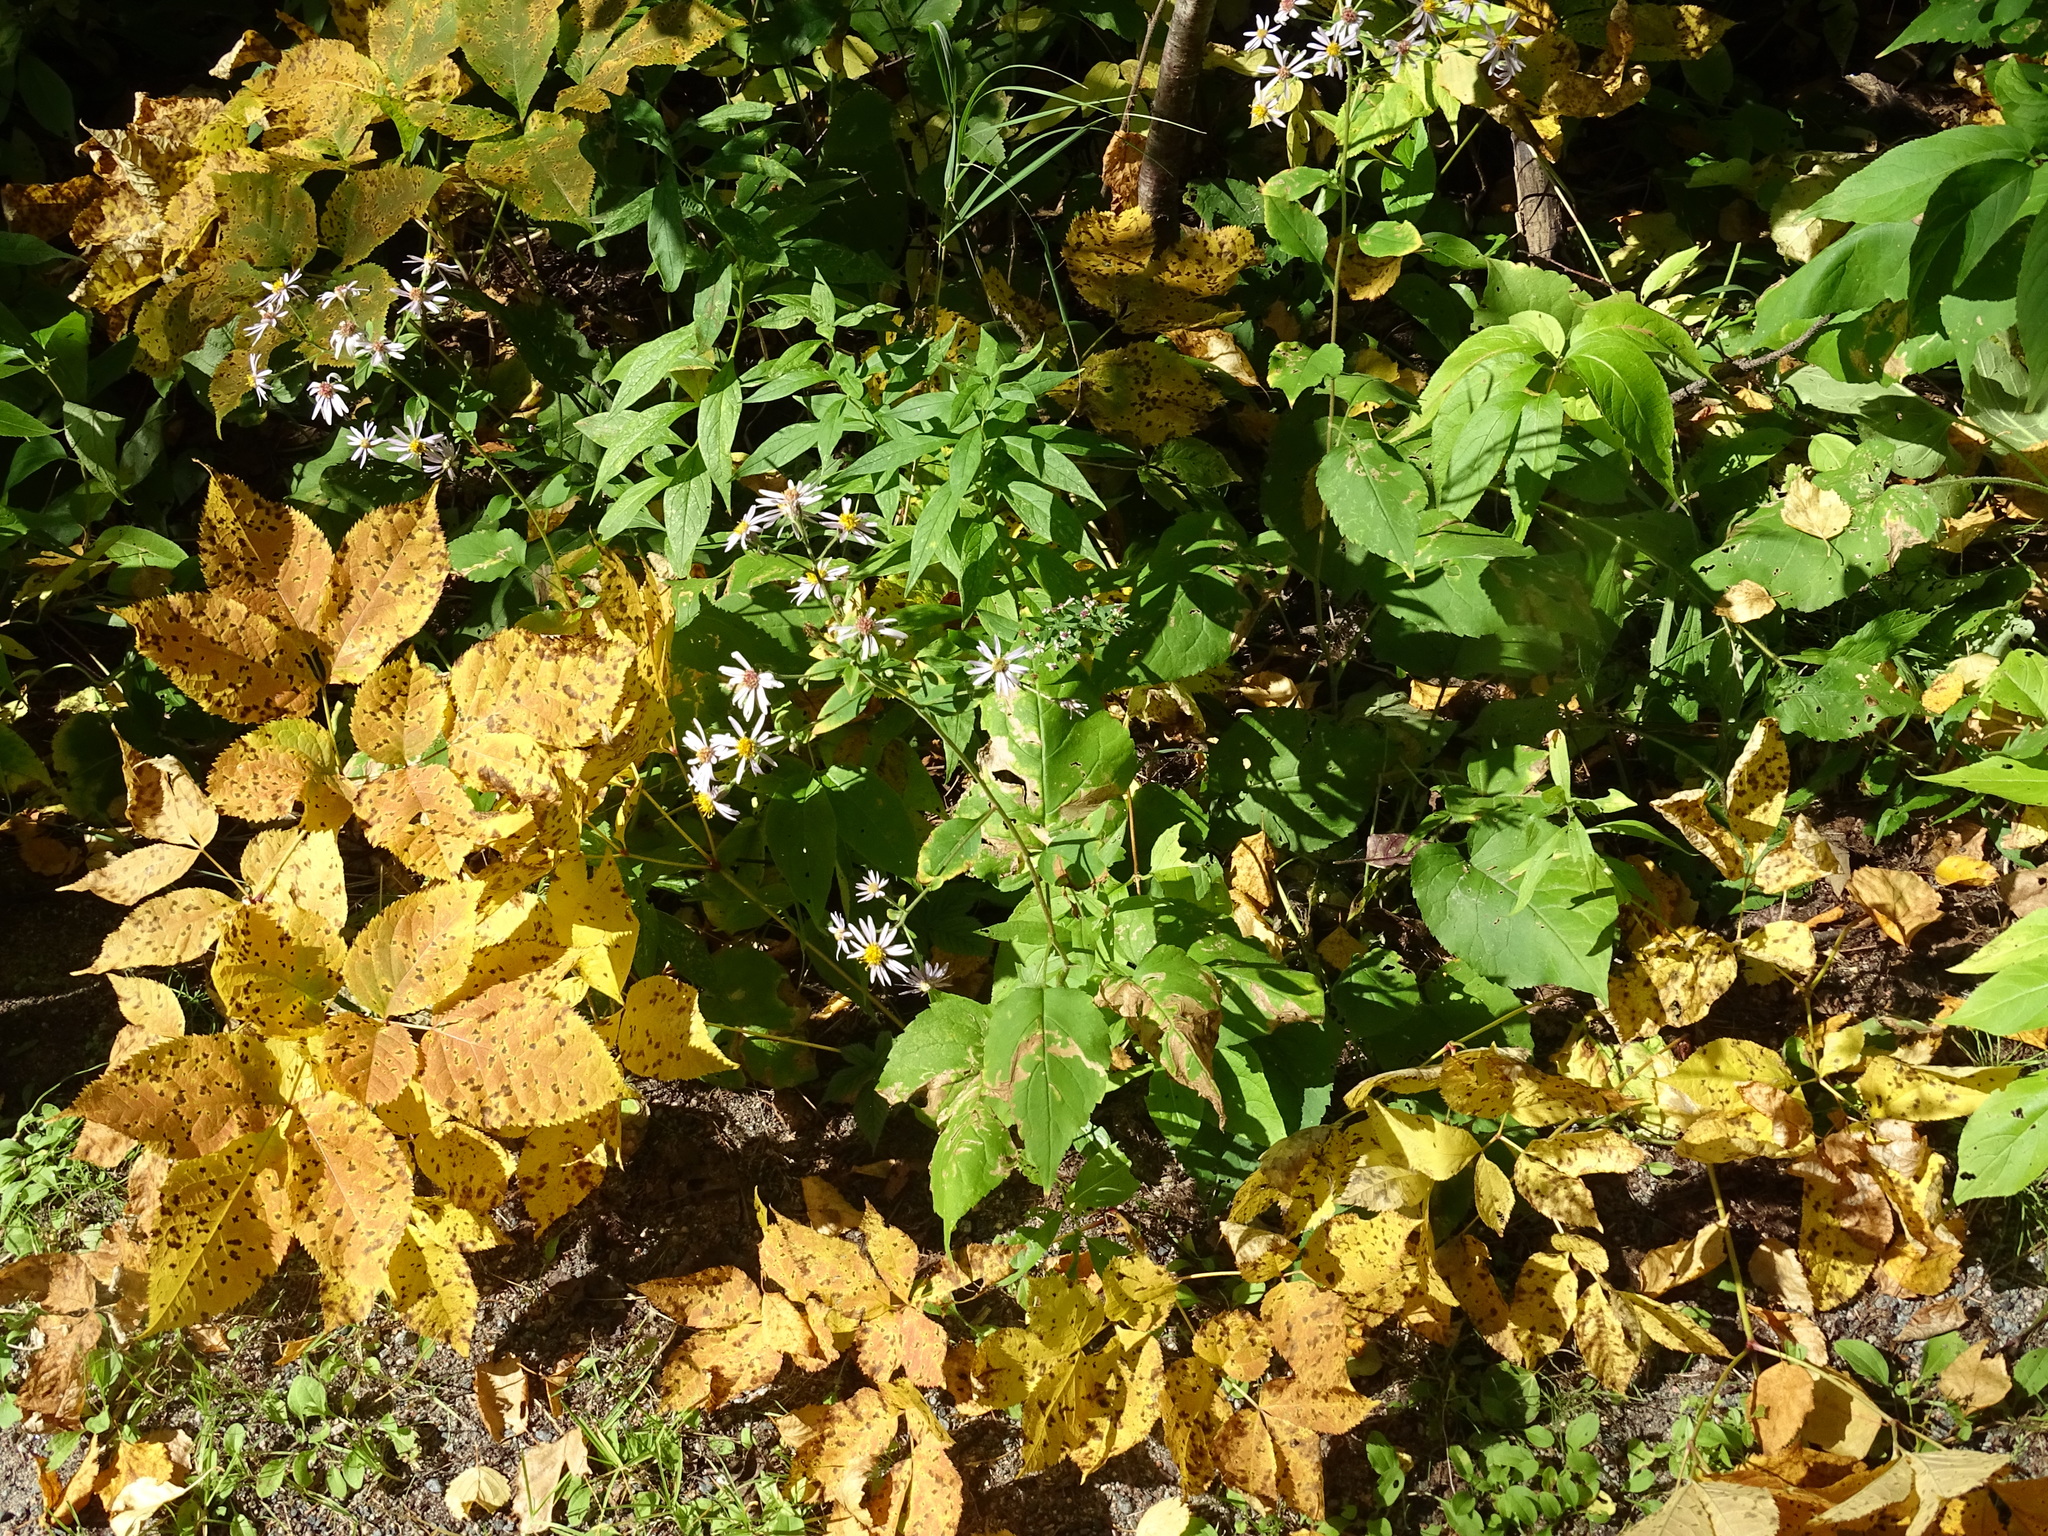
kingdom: Plantae
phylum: Tracheophyta
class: Magnoliopsida
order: Asterales
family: Asteraceae
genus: Eurybia
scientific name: Eurybia macrophylla
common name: Big-leaved aster
